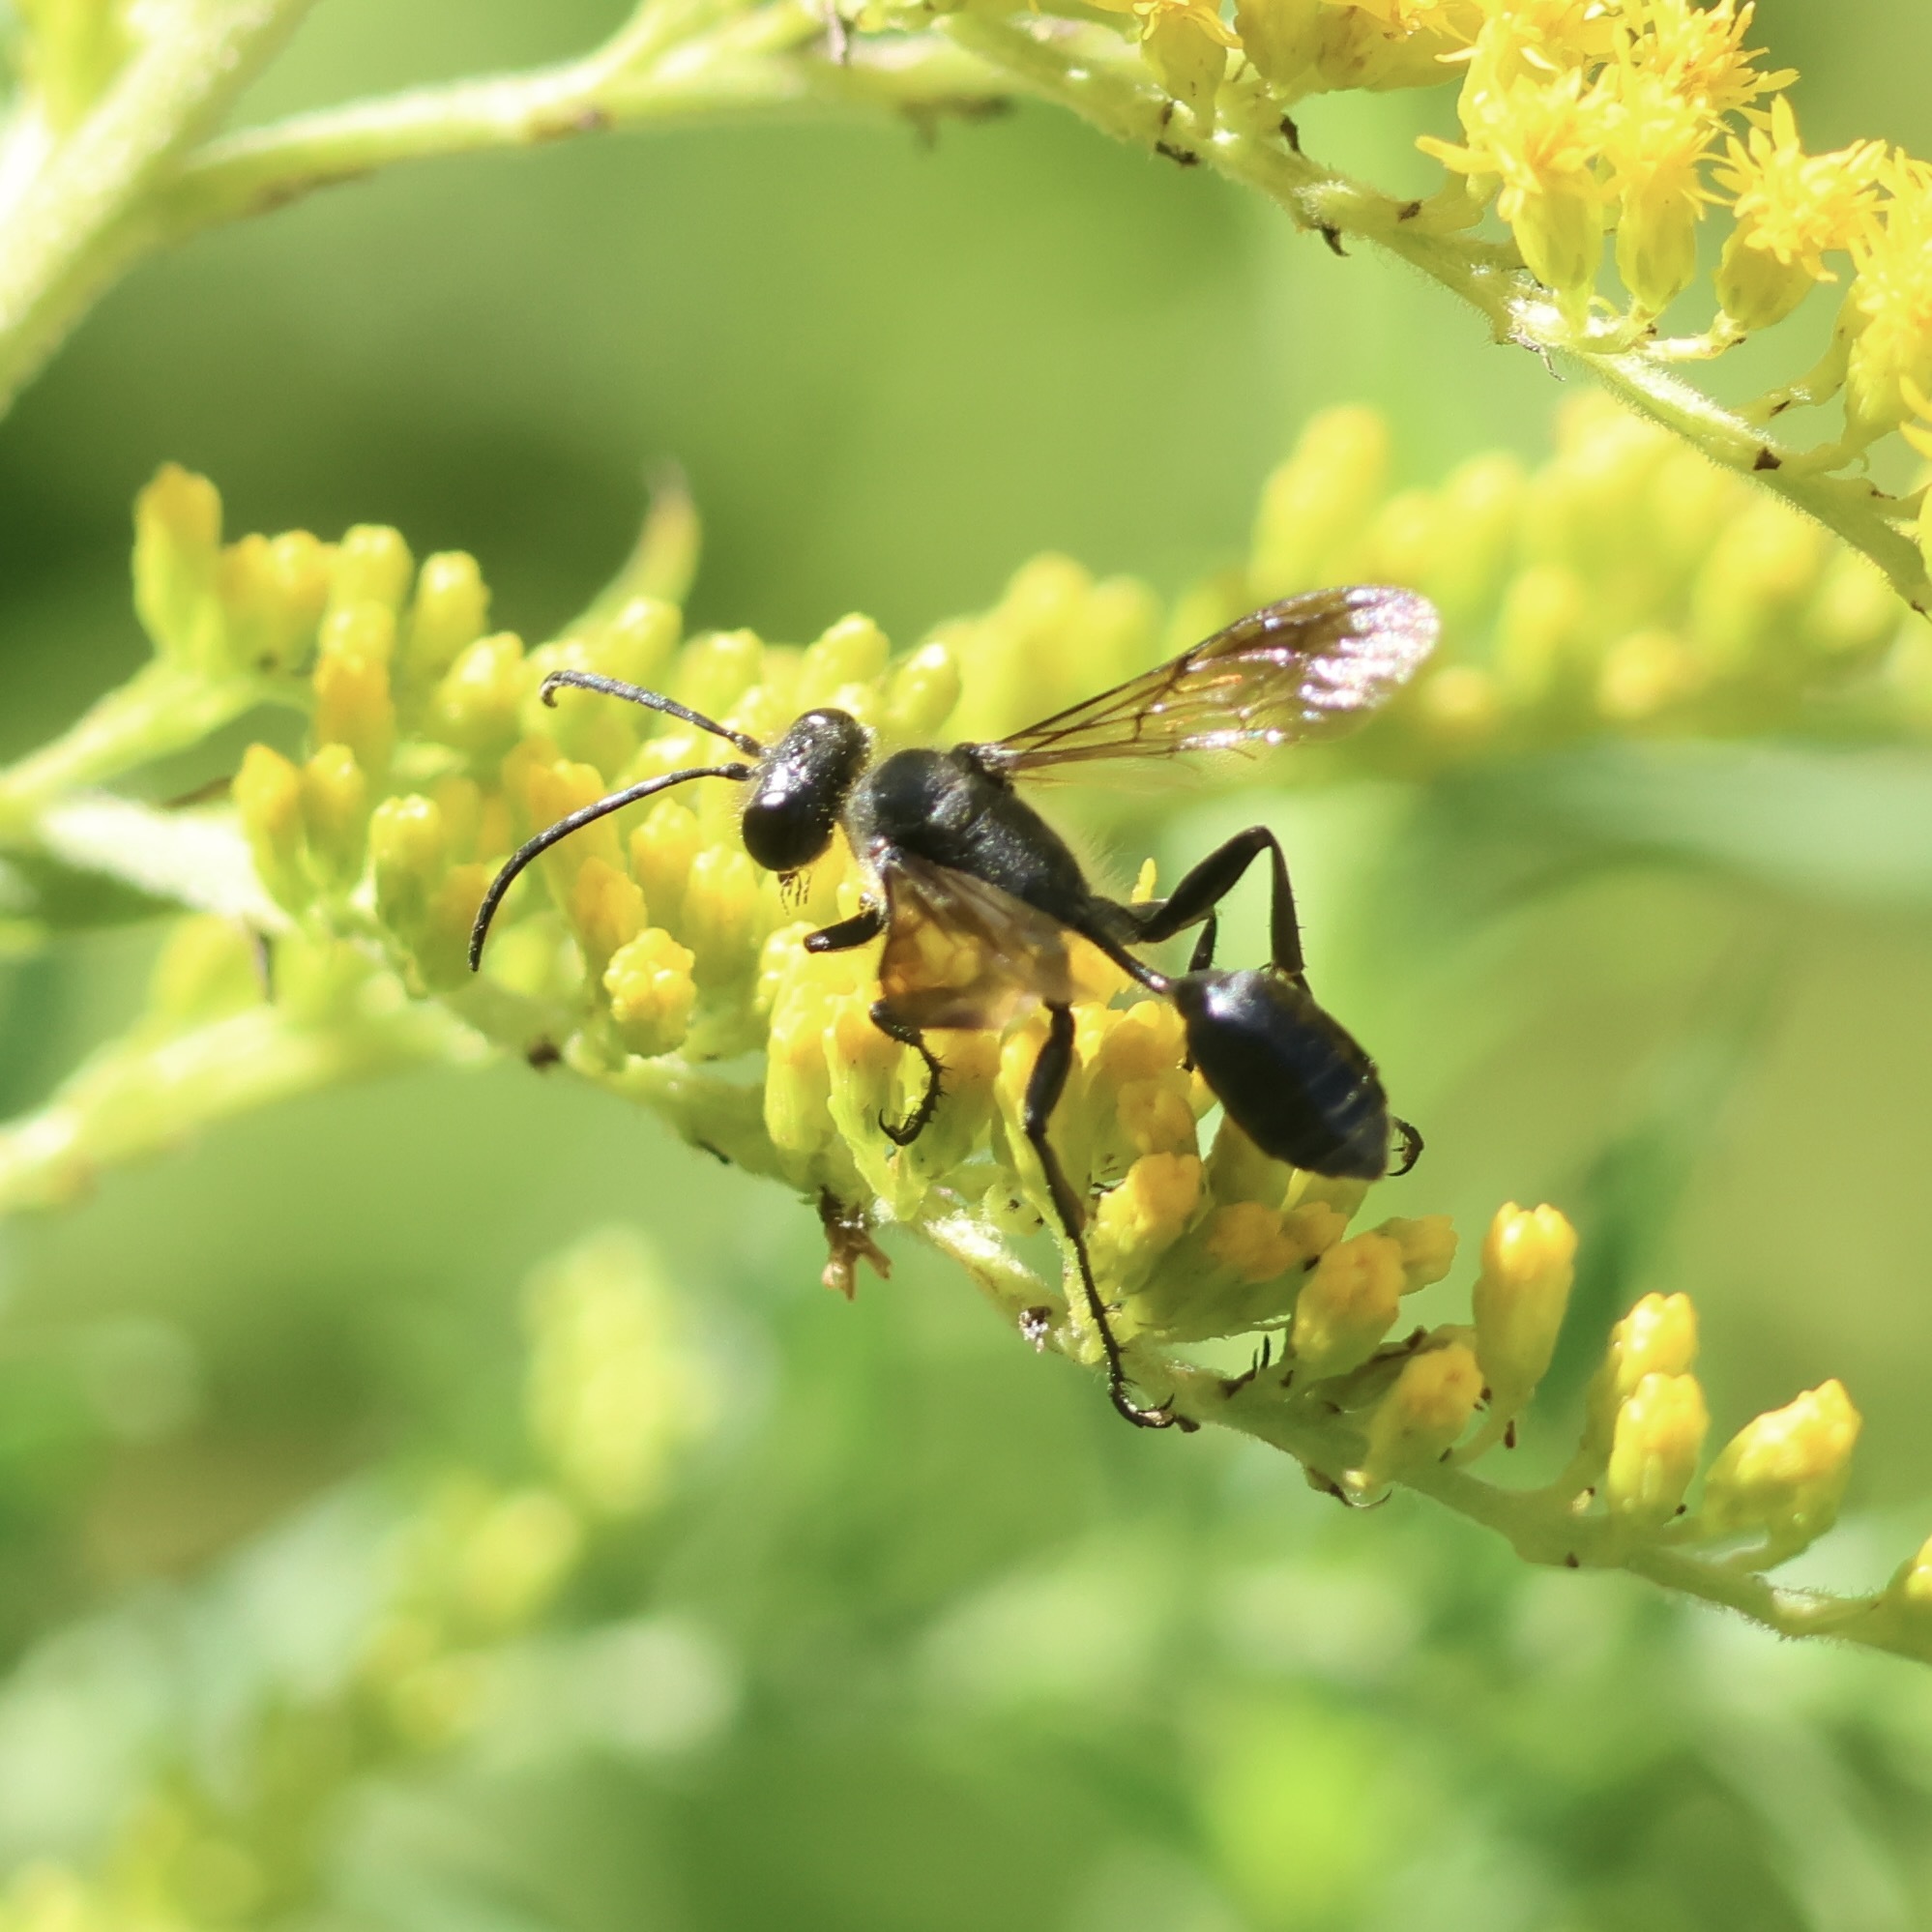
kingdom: Animalia
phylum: Arthropoda
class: Insecta
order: Hymenoptera
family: Sphecidae
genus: Isodontia
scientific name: Isodontia mexicana
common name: Mud dauber
